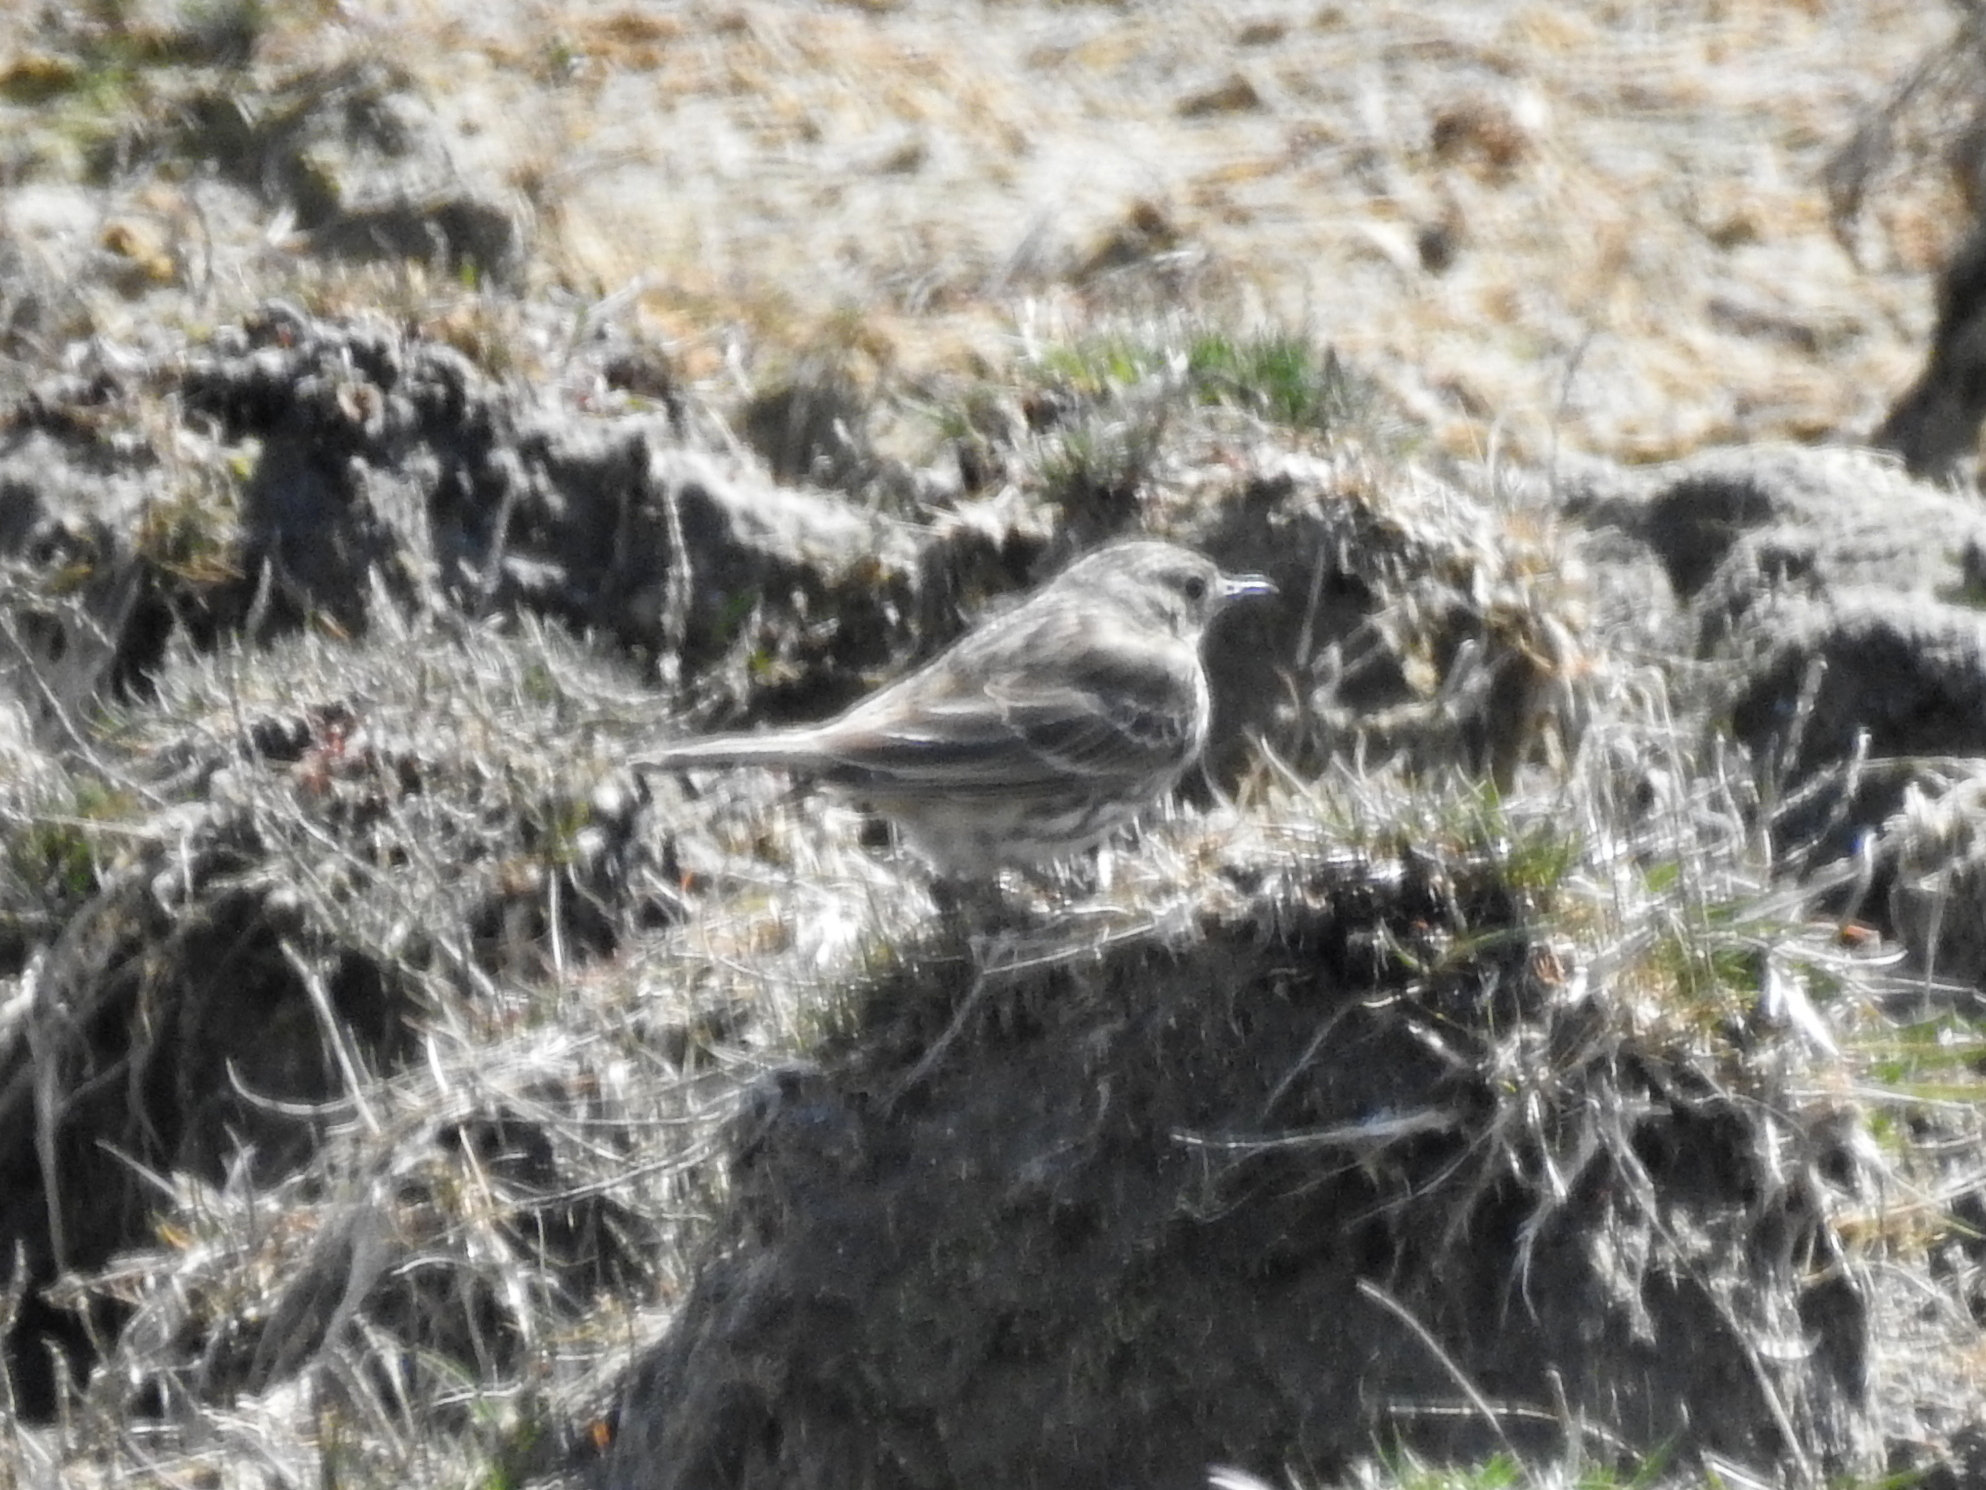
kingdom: Animalia
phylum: Chordata
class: Aves
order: Passeriformes
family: Motacillidae
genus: Anthus
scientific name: Anthus petrosus
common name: Eurasian rock pipit
